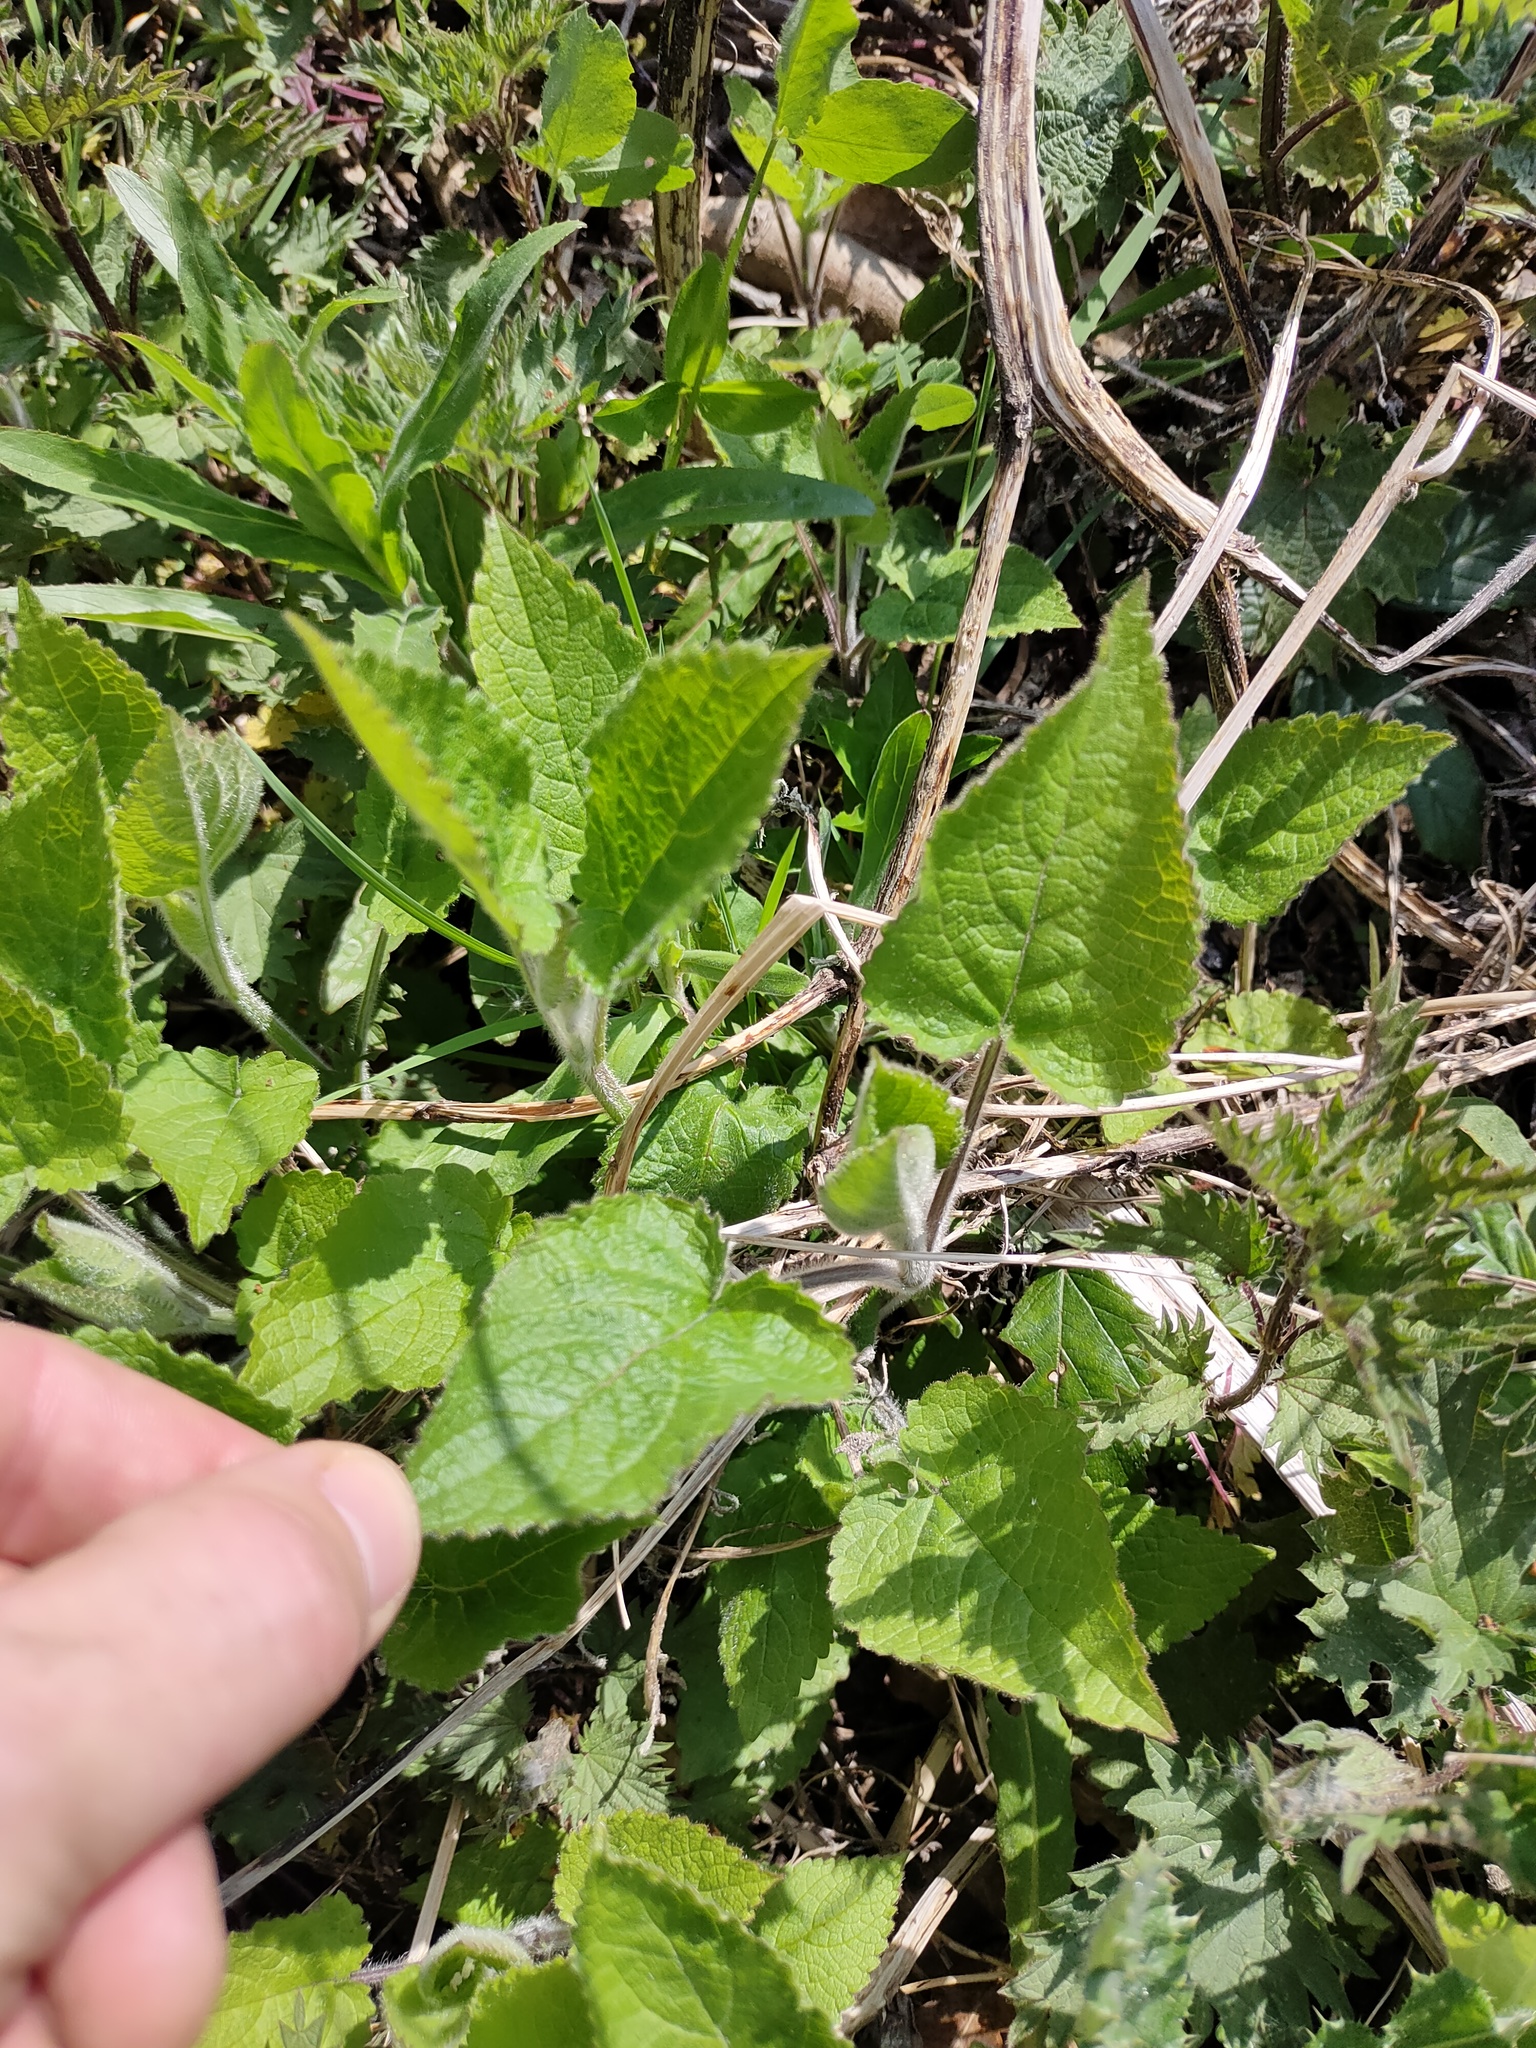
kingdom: Plantae
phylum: Tracheophyta
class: Magnoliopsida
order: Lamiales
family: Lamiaceae
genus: Stachys
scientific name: Stachys sylvatica
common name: Hedge woundwort
